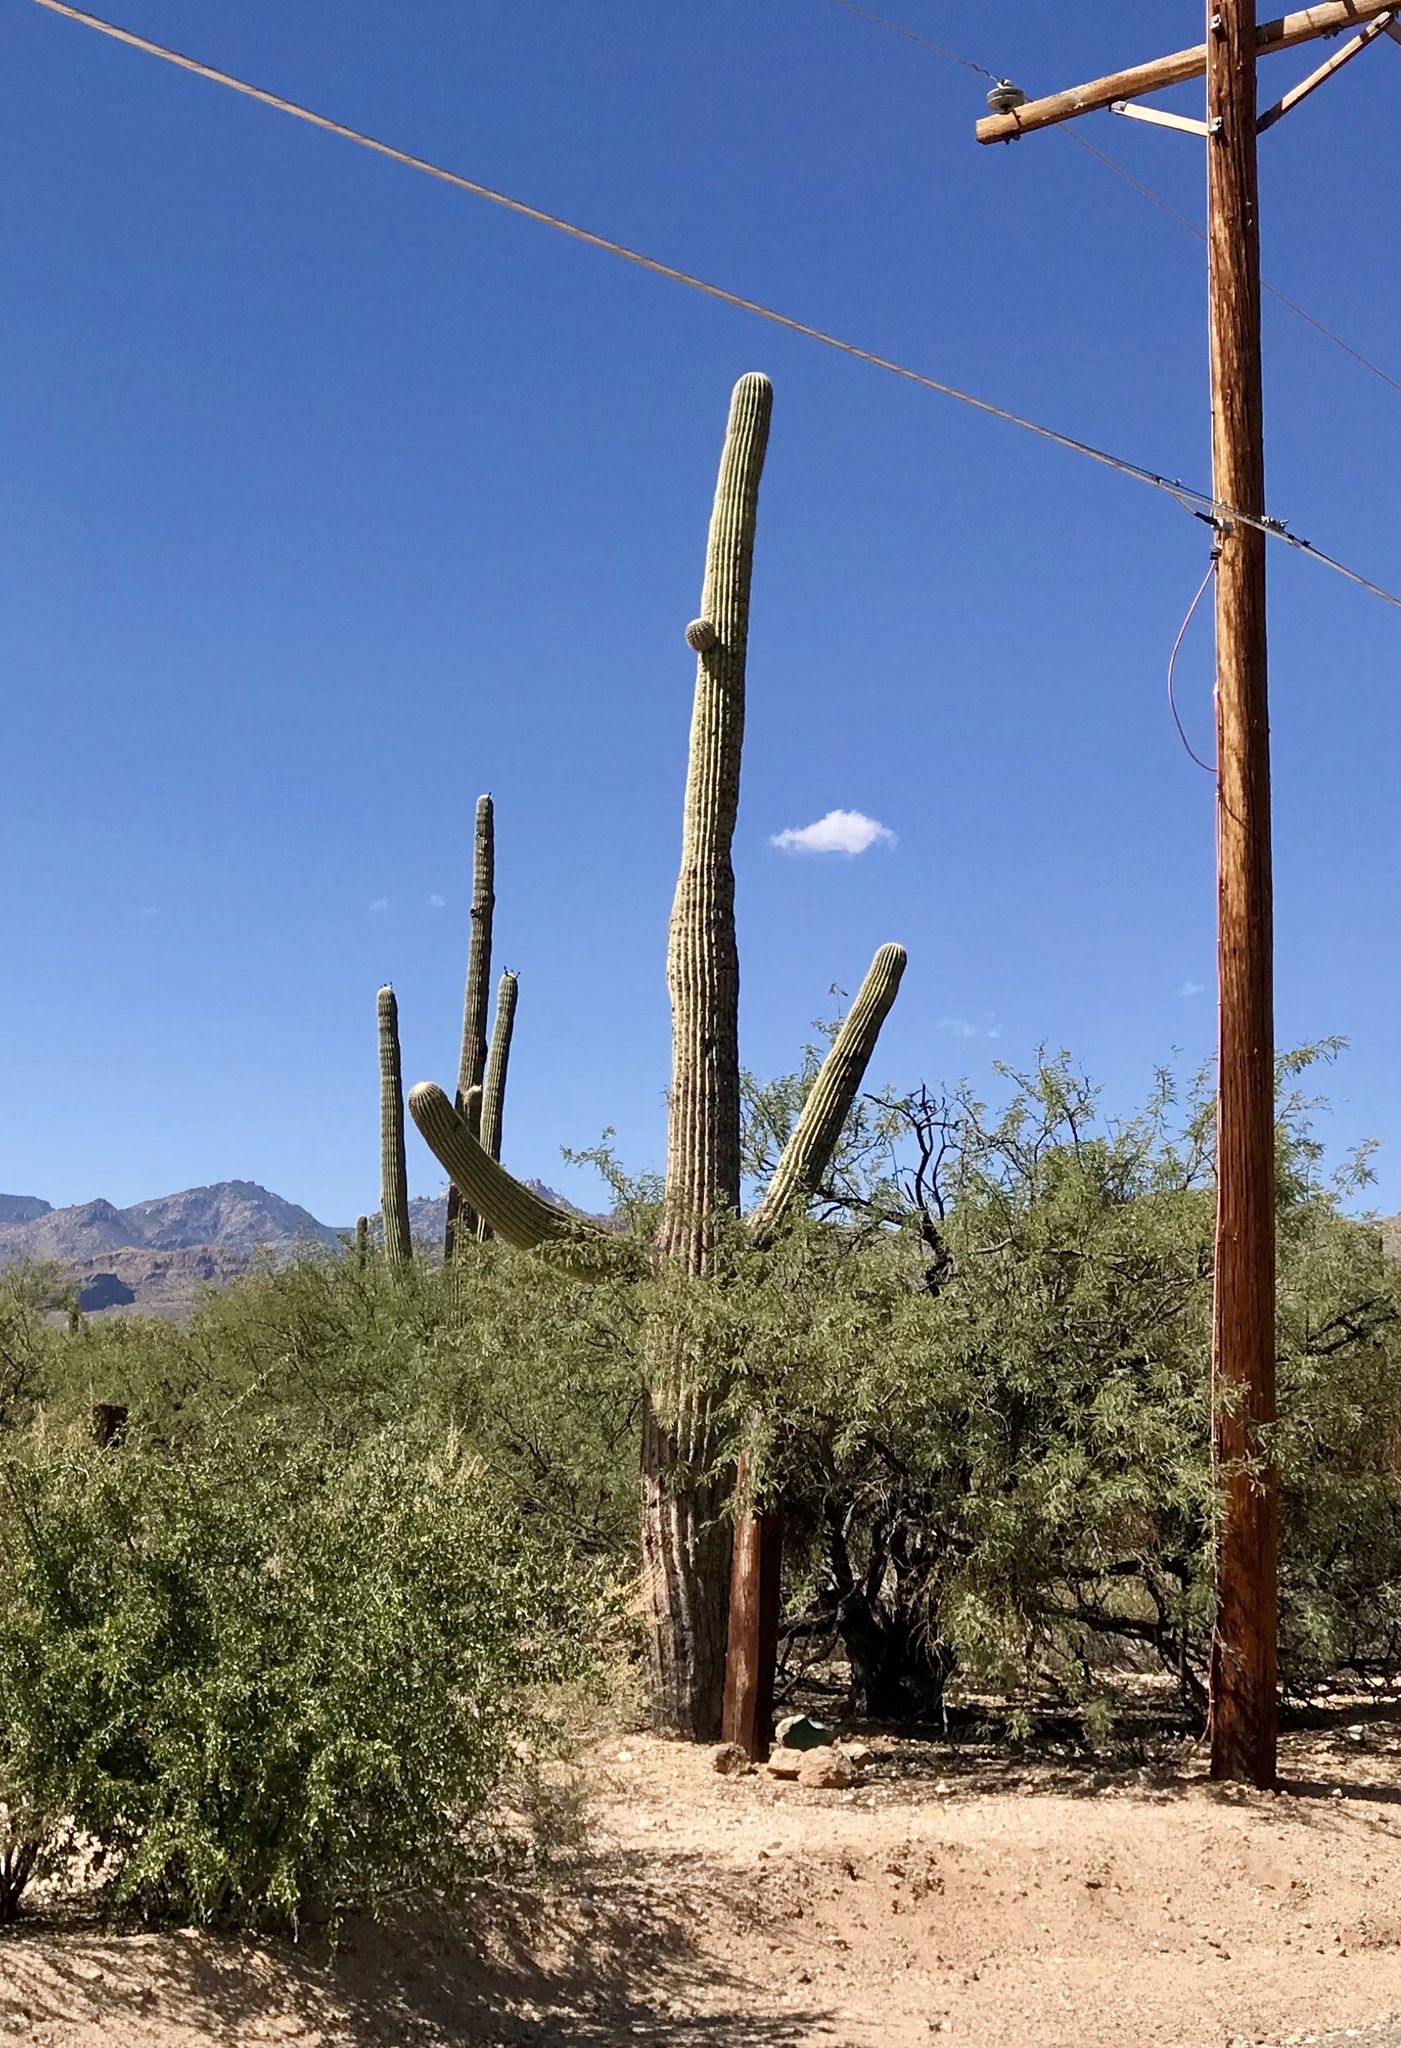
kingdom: Plantae
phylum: Tracheophyta
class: Magnoliopsida
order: Caryophyllales
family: Cactaceae
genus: Carnegiea
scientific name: Carnegiea gigantea
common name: Saguaro
